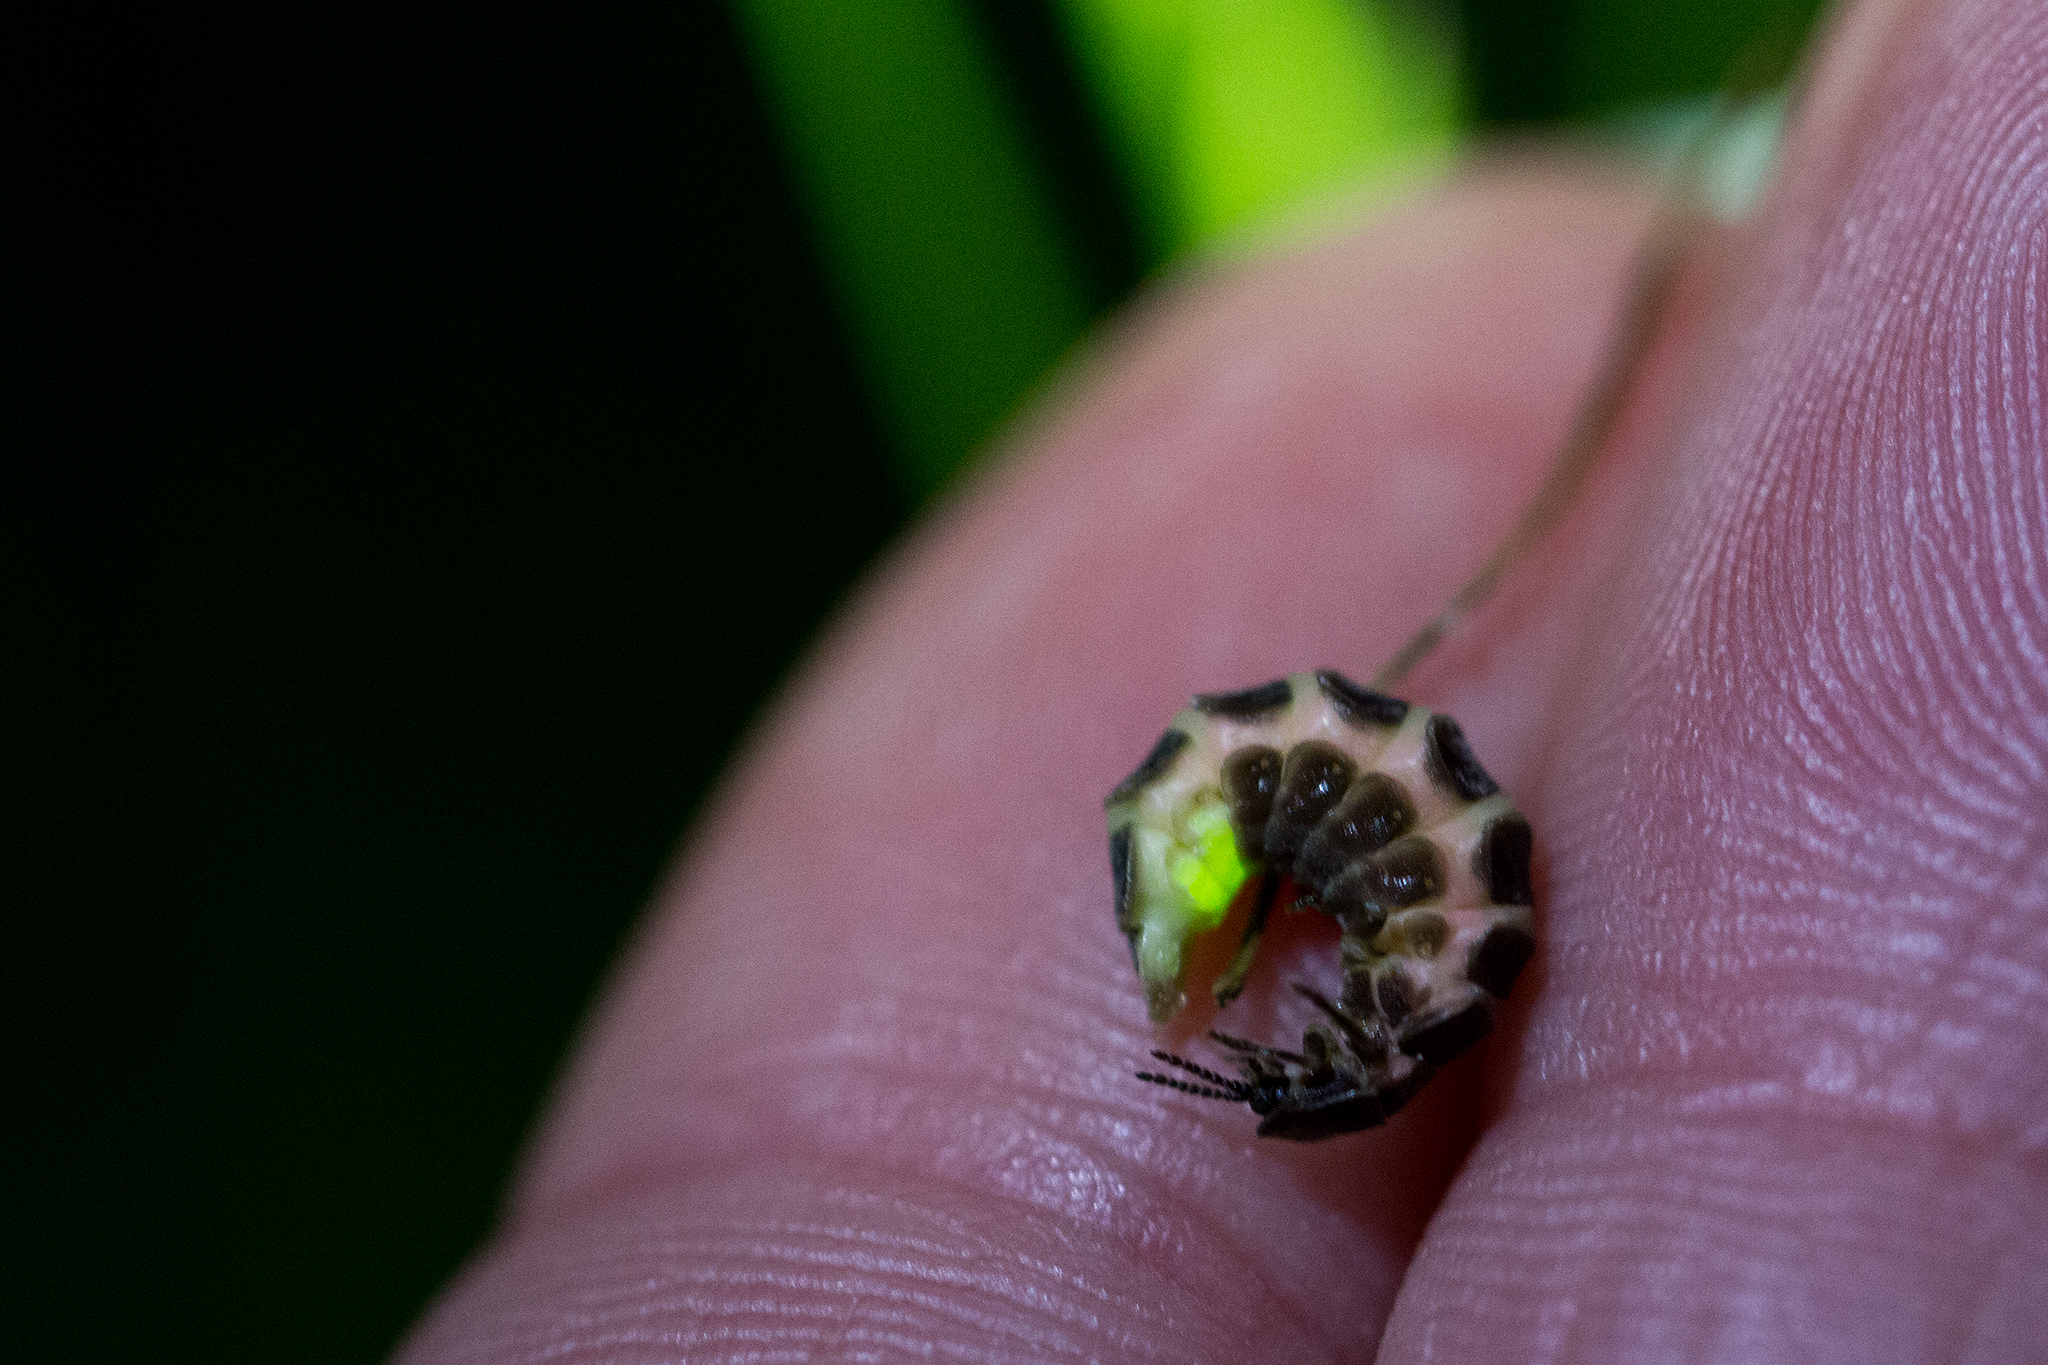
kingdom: Animalia
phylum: Arthropoda
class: Insecta
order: Coleoptera
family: Lampyridae
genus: Lampyris
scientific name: Lampyris noctiluca
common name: Glow-worm
